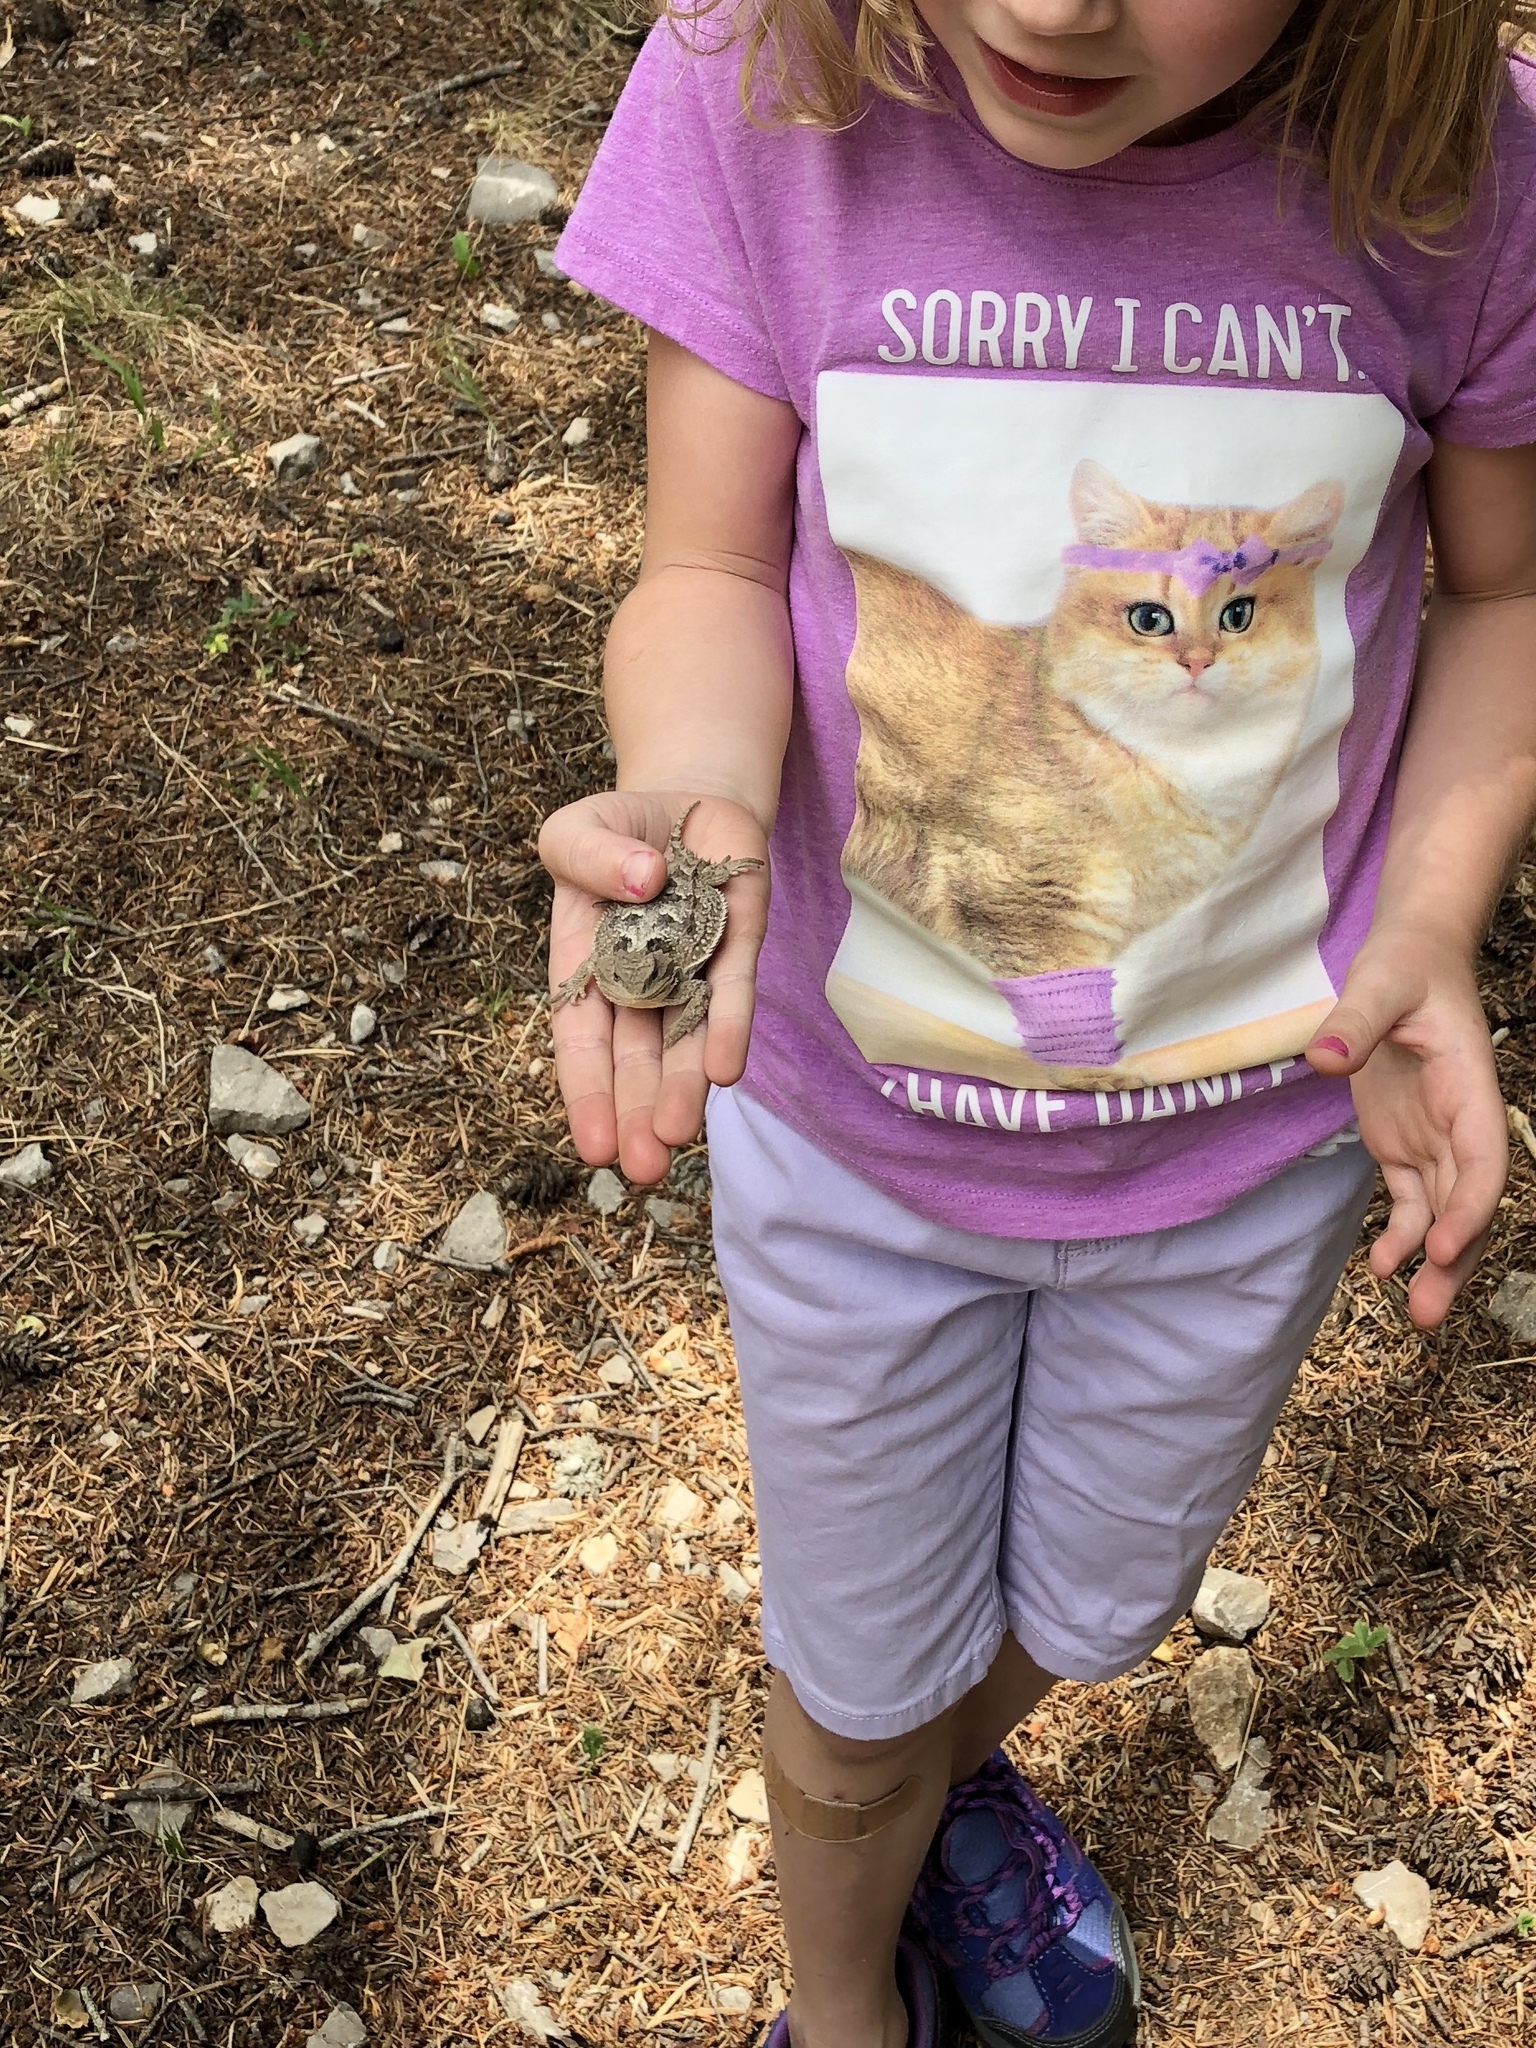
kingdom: Animalia
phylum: Chordata
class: Squamata
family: Phrynosomatidae
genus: Phrynosoma
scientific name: Phrynosoma hernandesi
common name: Greater short-horned lizard
